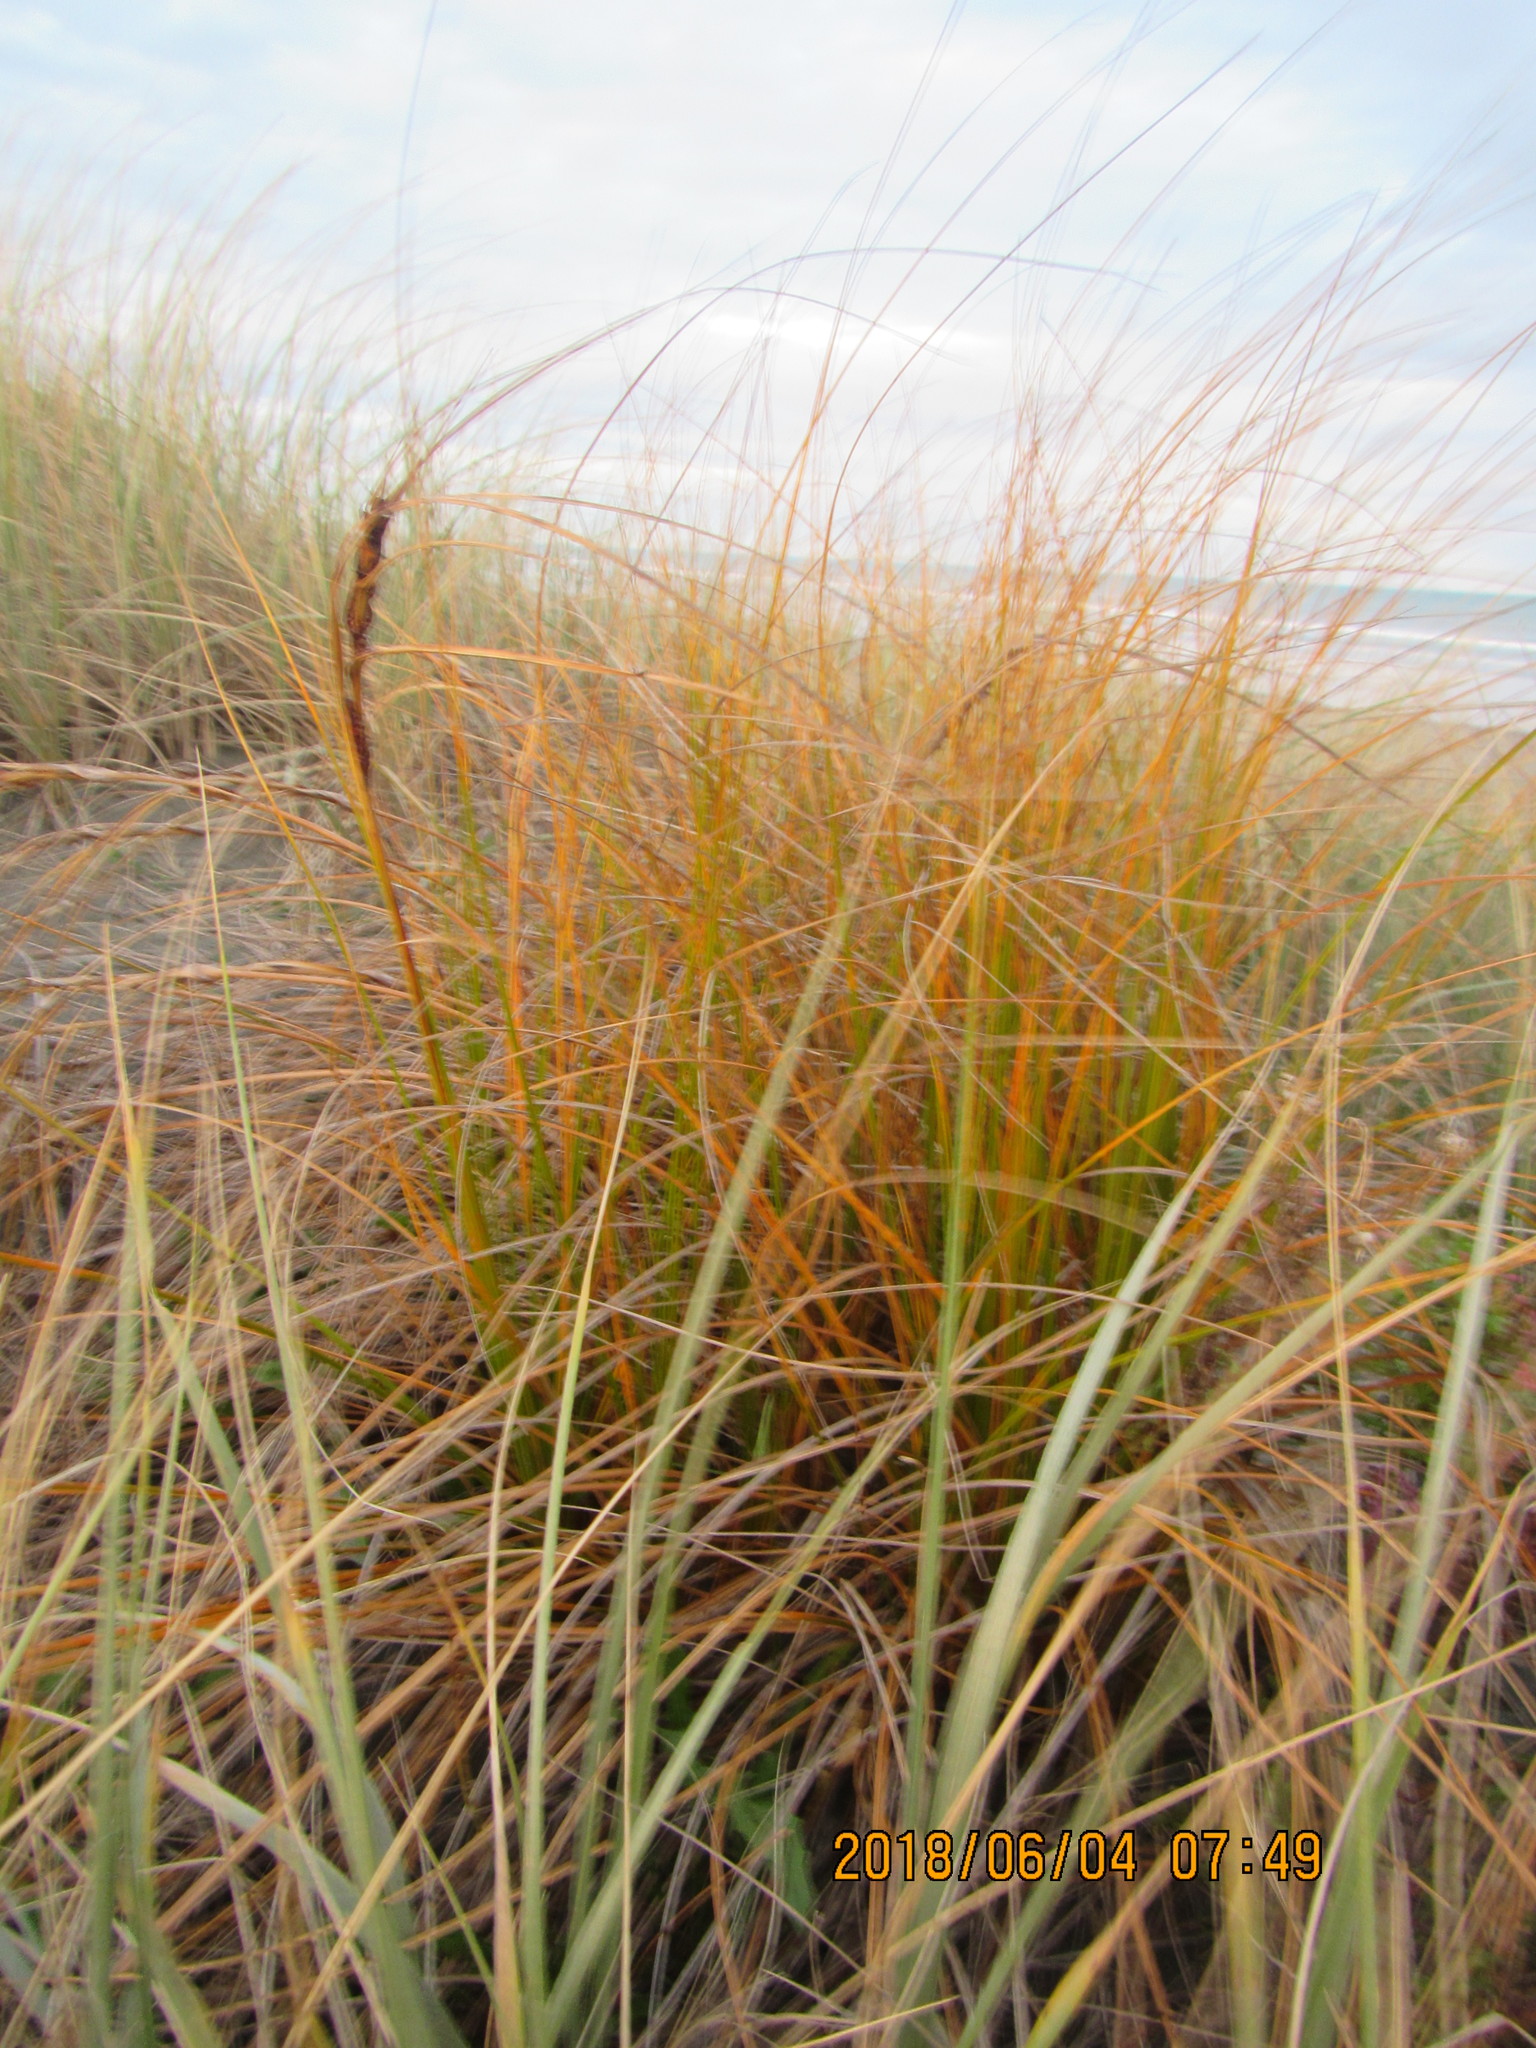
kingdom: Plantae
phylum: Tracheophyta
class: Liliopsida
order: Poales
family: Cyperaceae
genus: Ficinia
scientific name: Ficinia spiralis
